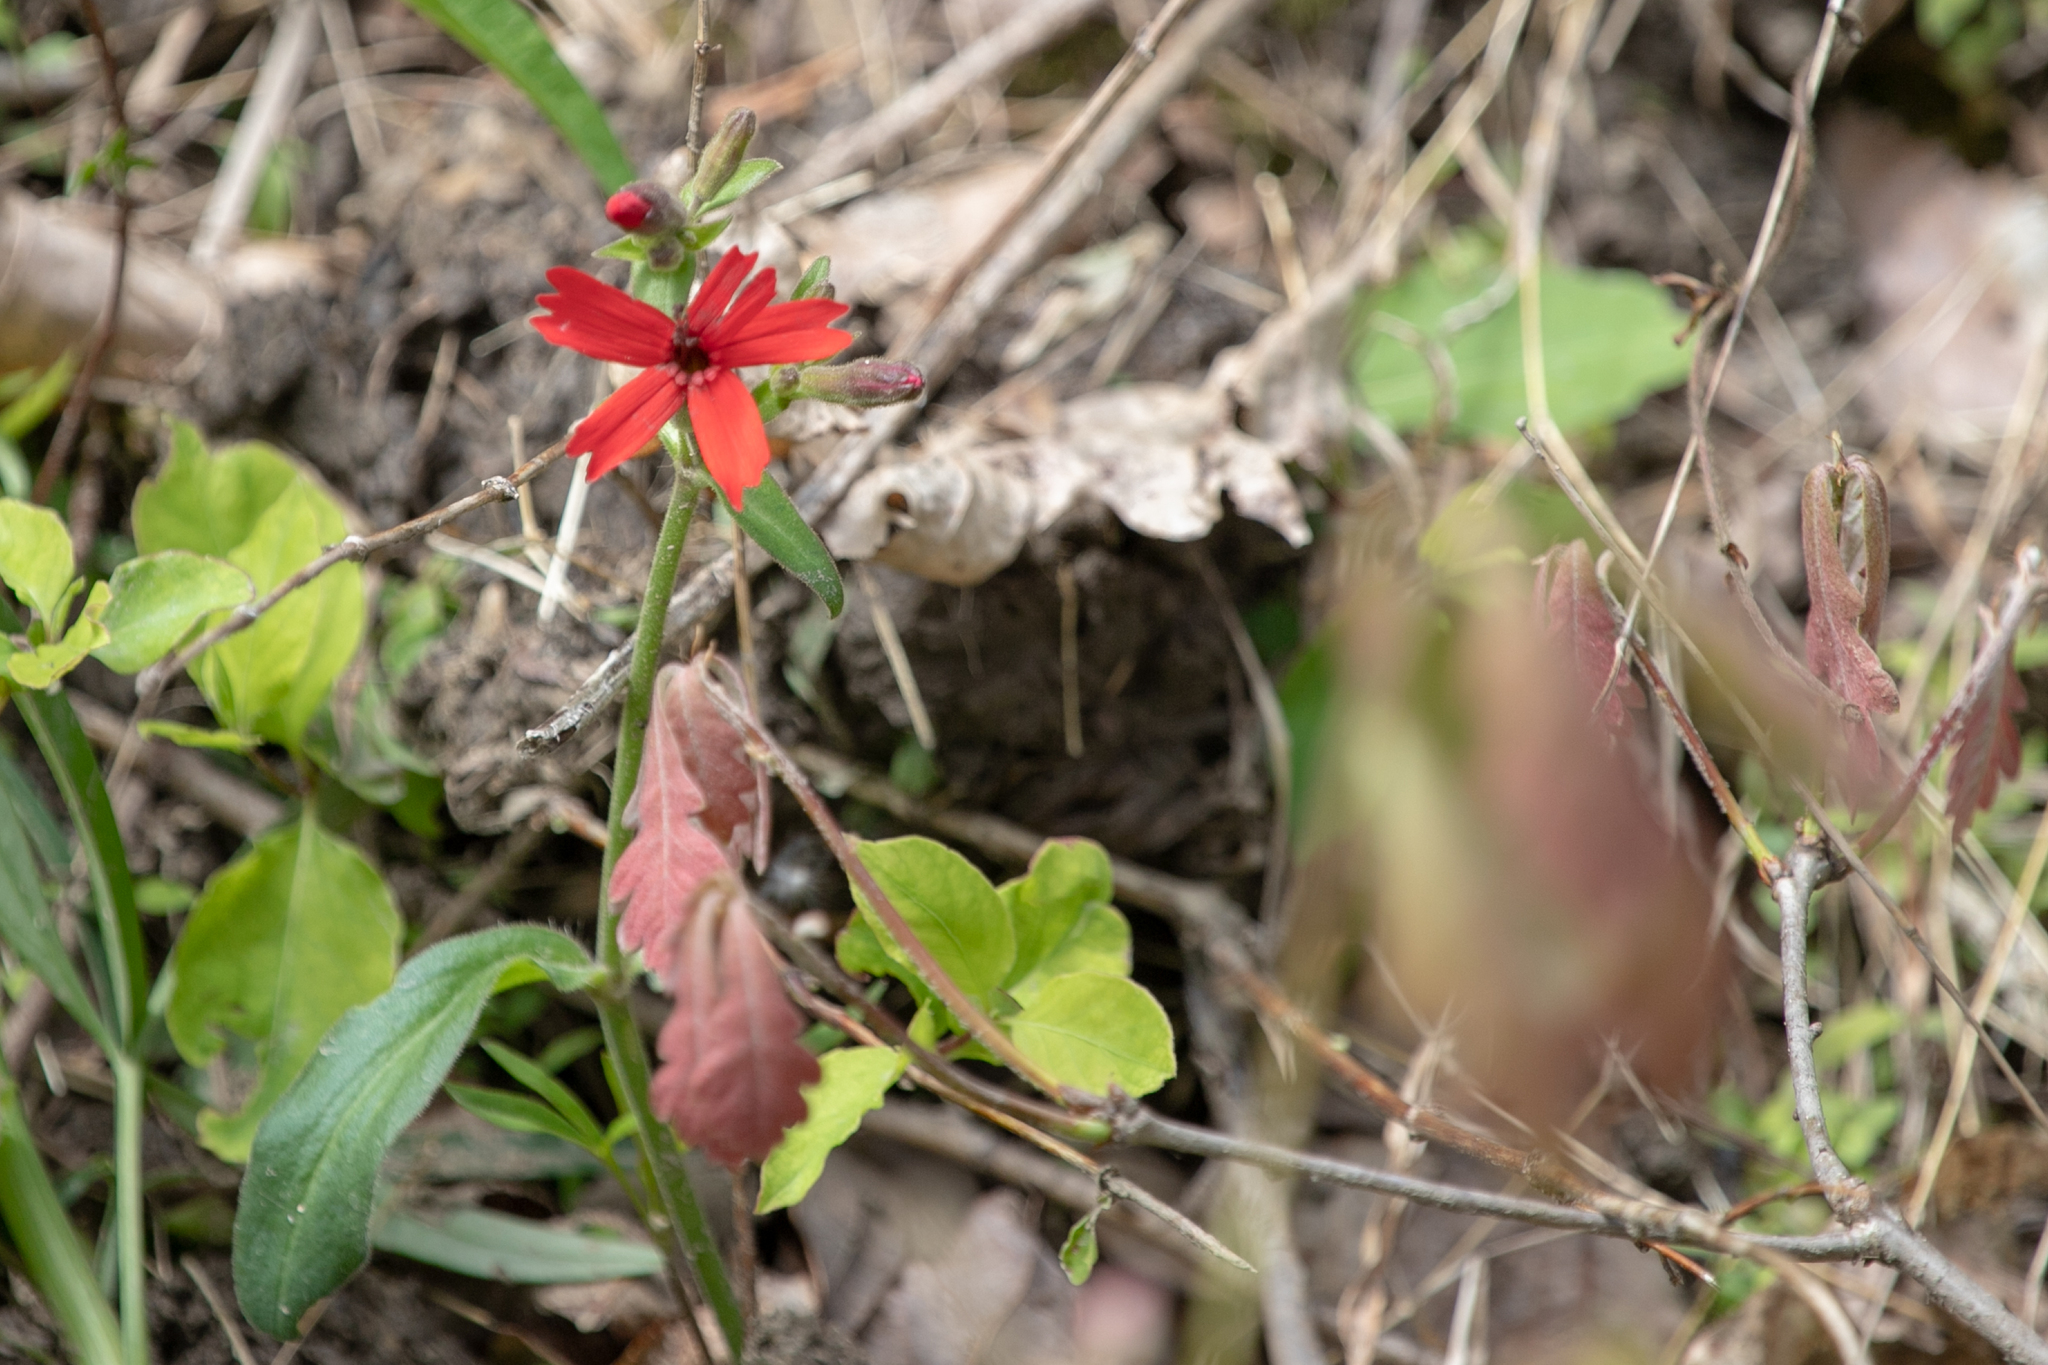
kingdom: Plantae
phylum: Tracheophyta
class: Magnoliopsida
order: Caryophyllales
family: Caryophyllaceae
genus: Silene
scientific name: Silene virginica
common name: Fire-pink
